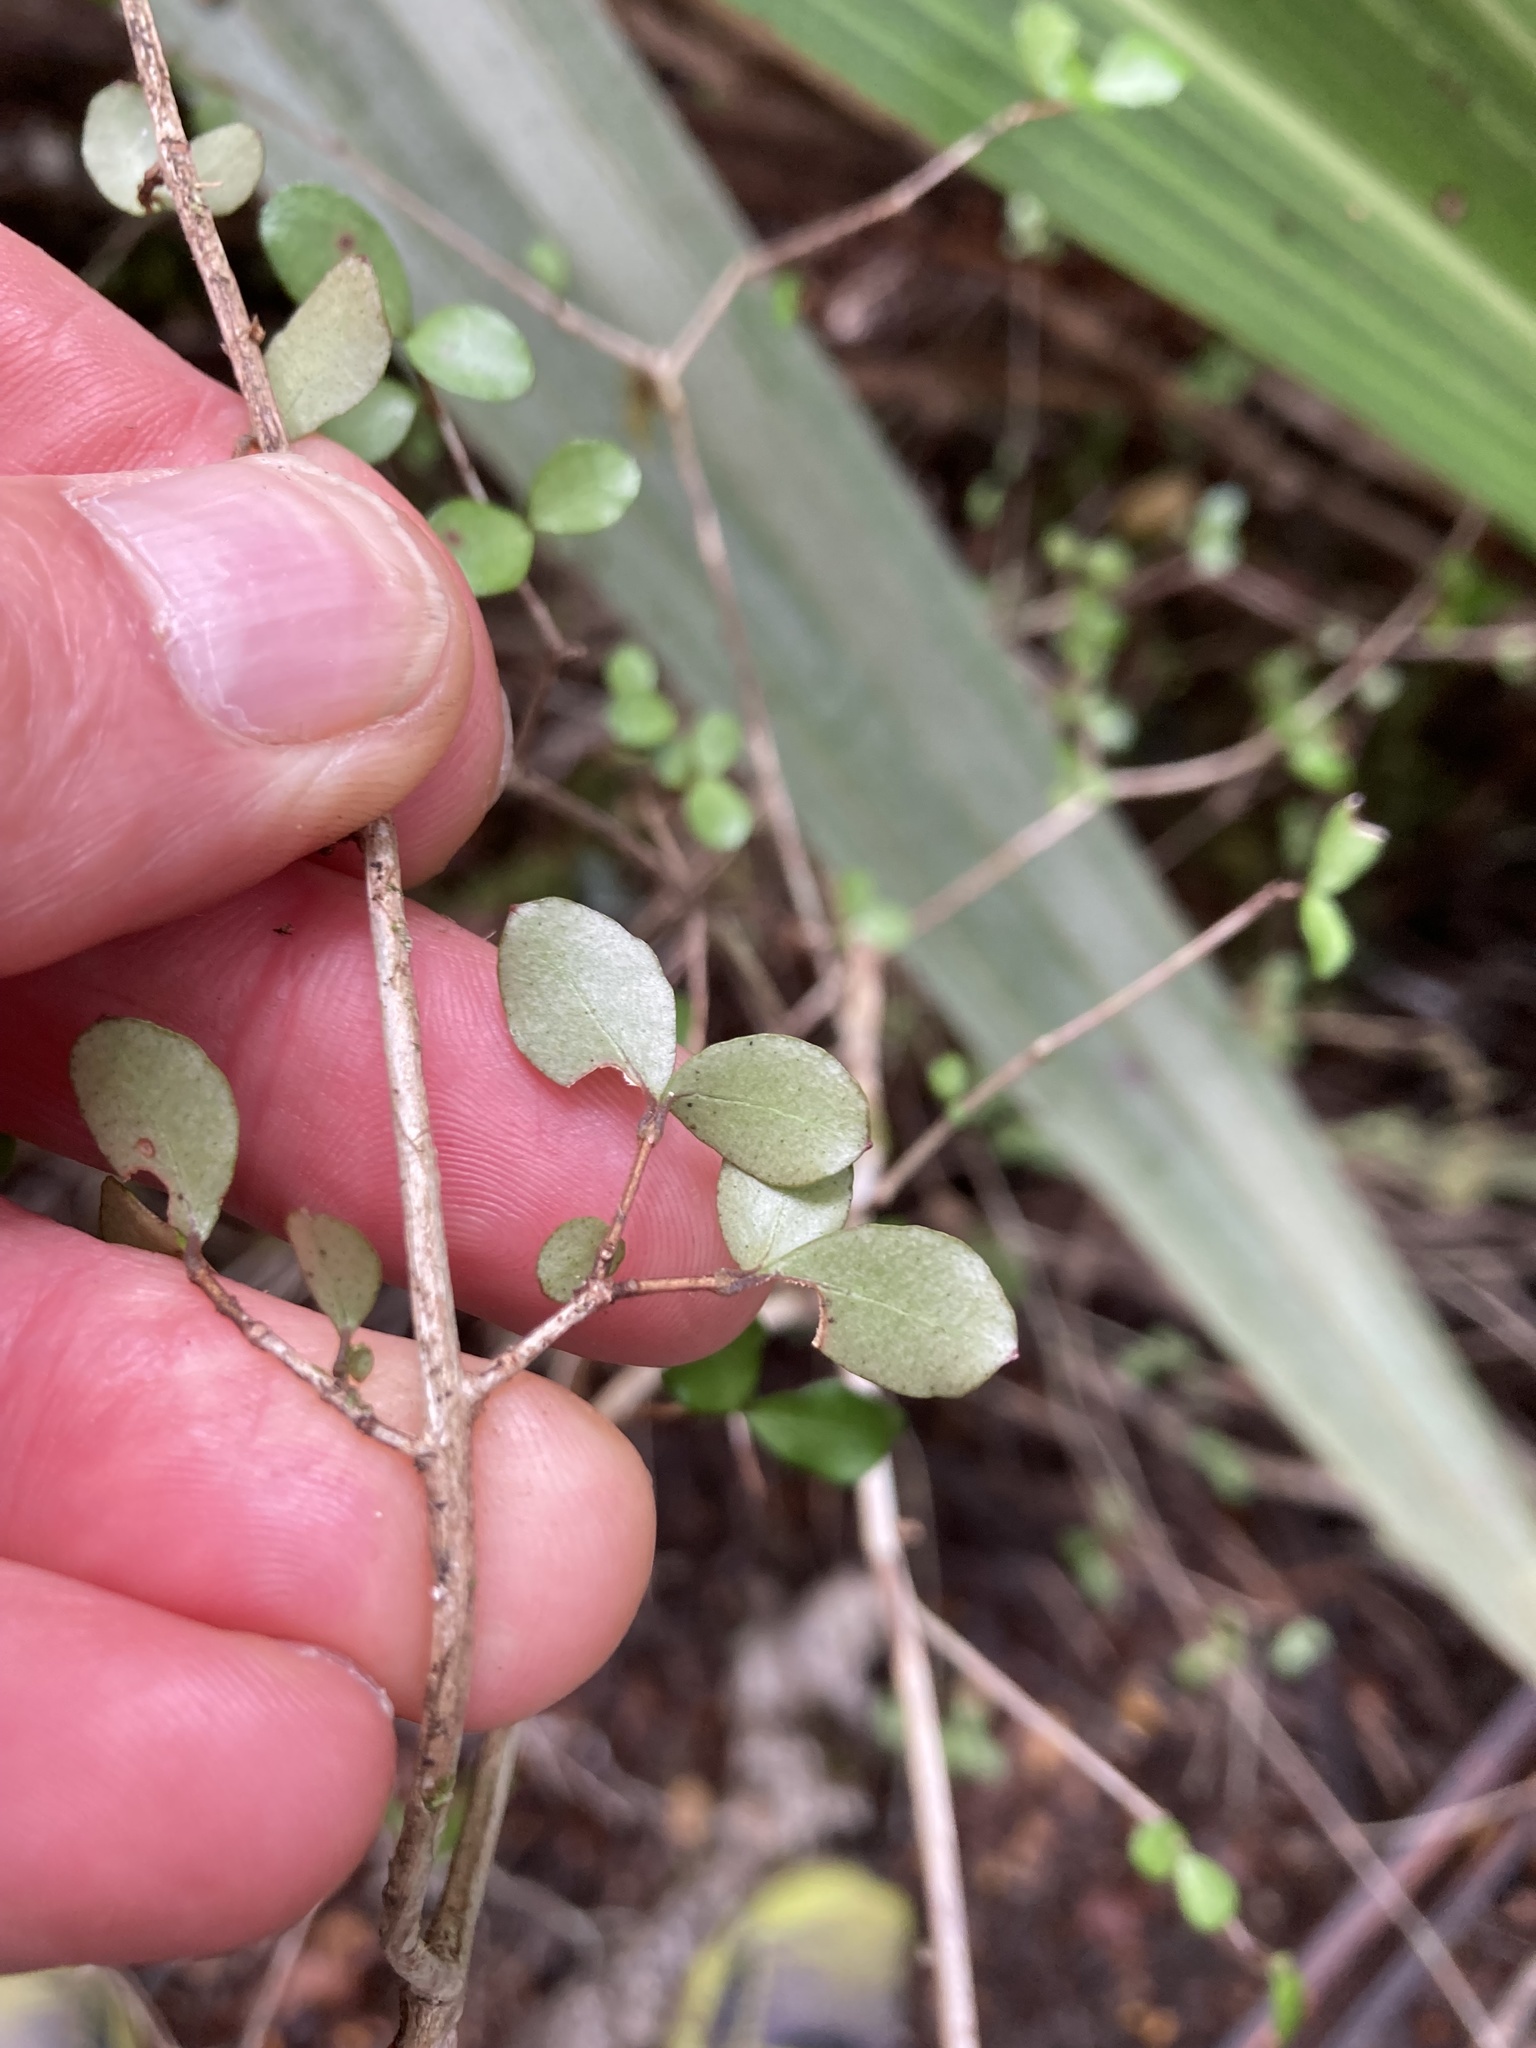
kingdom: Plantae
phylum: Tracheophyta
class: Magnoliopsida
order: Myrtales
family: Myrtaceae
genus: Neomyrtus
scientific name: Neomyrtus pedunculata
